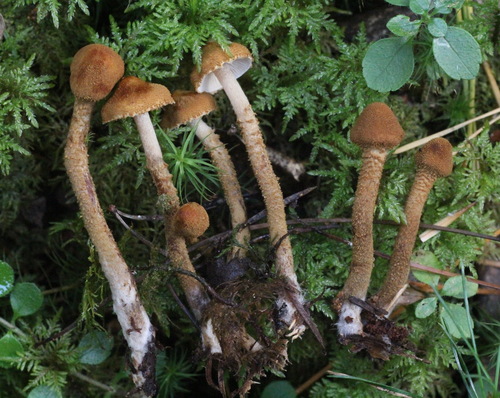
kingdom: Fungi
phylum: Basidiomycota
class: Agaricomycetes
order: Agaricales
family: Tricholomataceae
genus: Cystoderma
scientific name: Cystoderma amianthinum
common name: Earthy powdercap
